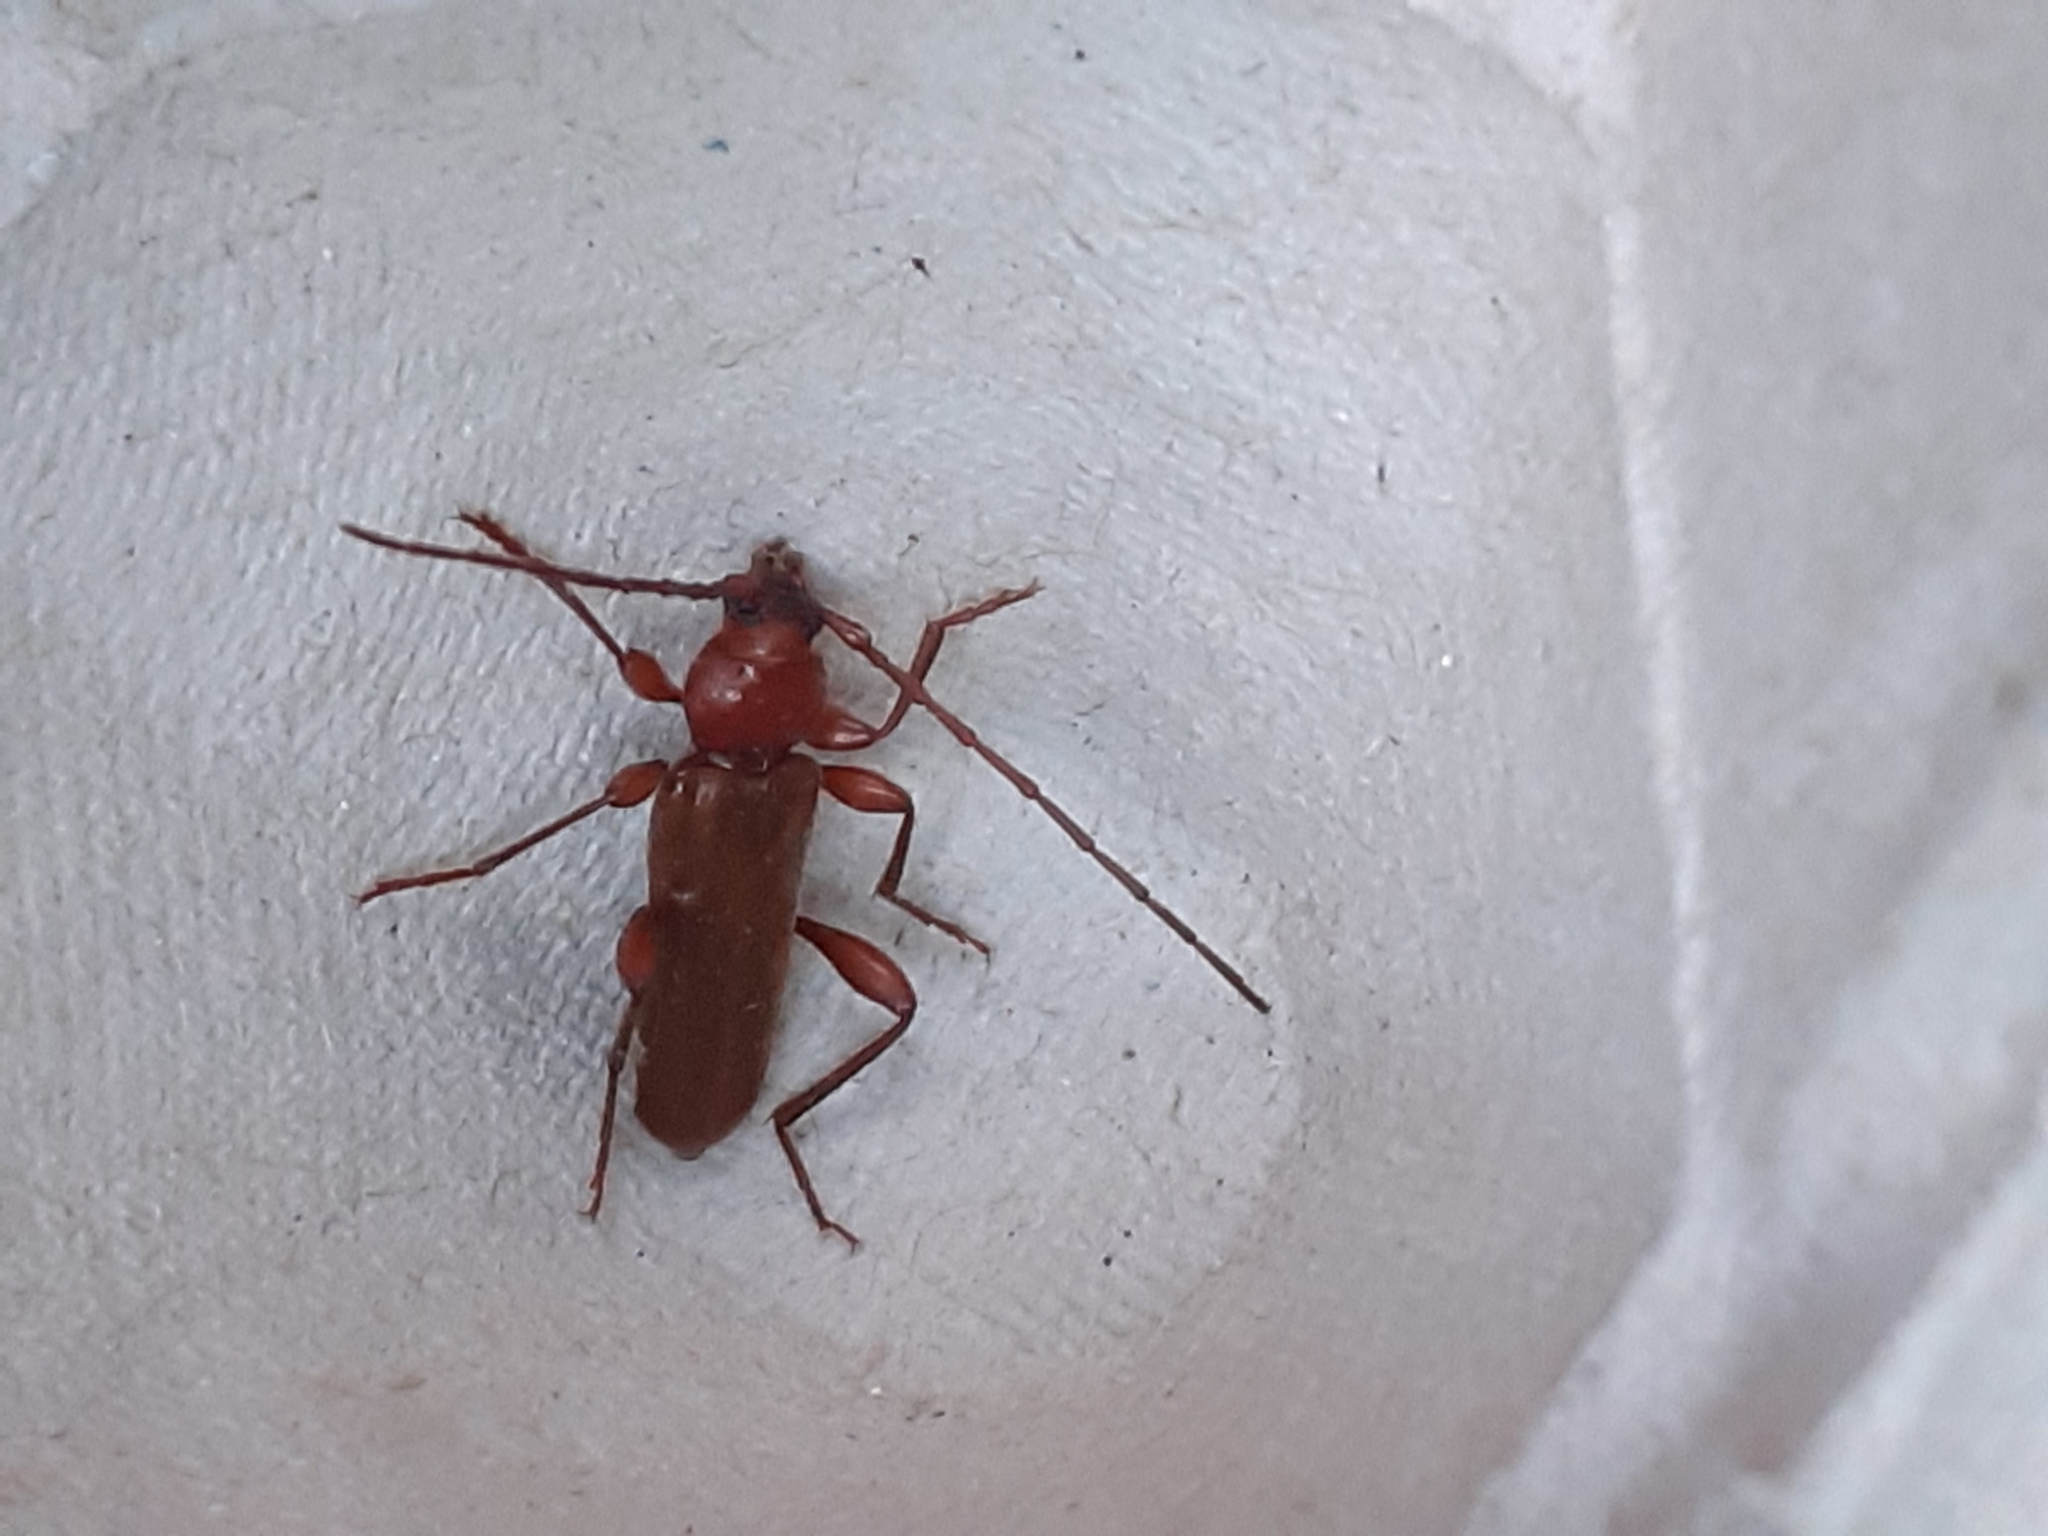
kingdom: Animalia
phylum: Arthropoda
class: Insecta
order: Coleoptera
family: Cerambycidae
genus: Phymatodes
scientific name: Phymatodes testaceus
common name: Long-horned beetle
